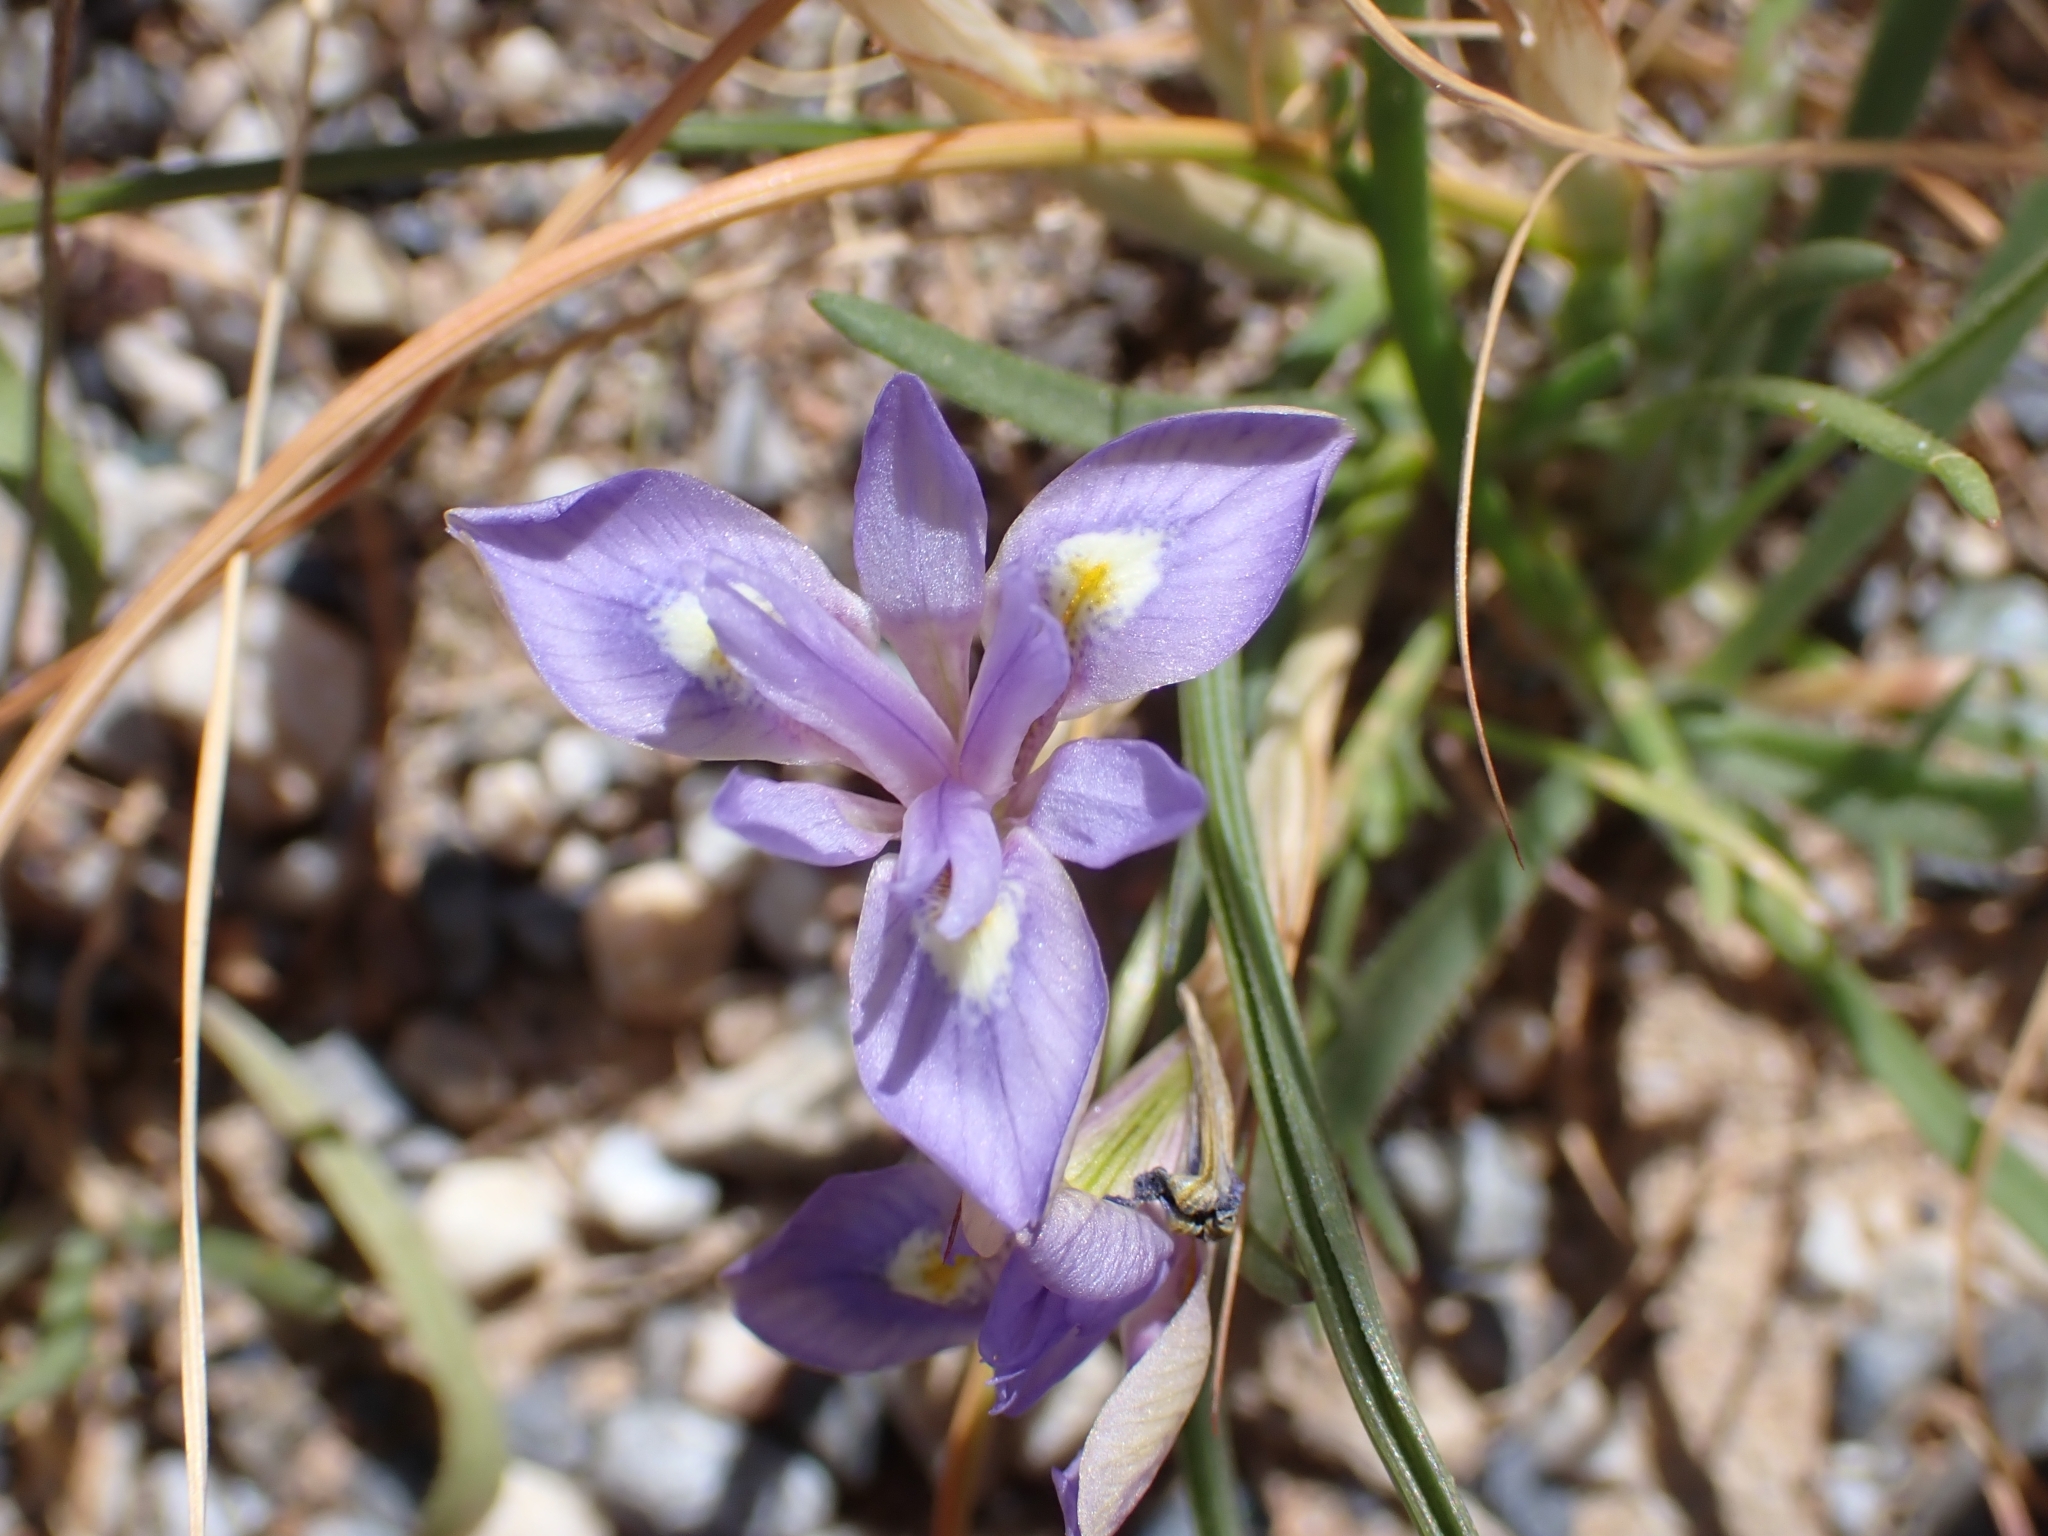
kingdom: Plantae
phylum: Tracheophyta
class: Liliopsida
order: Asparagales
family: Iridaceae
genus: Moraea
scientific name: Moraea sisyrinchium
